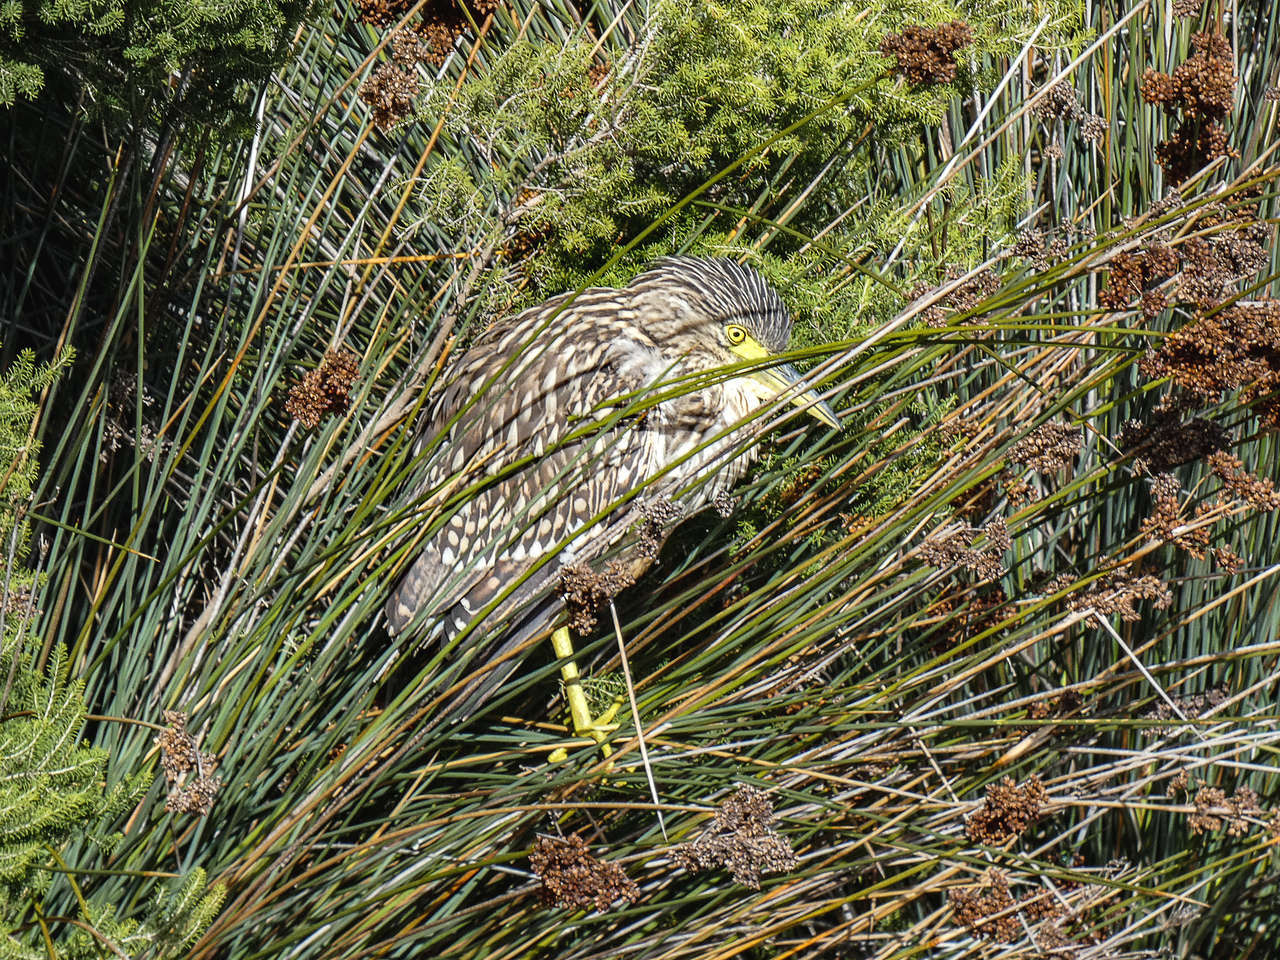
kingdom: Animalia
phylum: Chordata
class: Aves
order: Pelecaniformes
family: Ardeidae
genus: Nycticorax
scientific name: Nycticorax caledonicus
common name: Rufous night-heron
